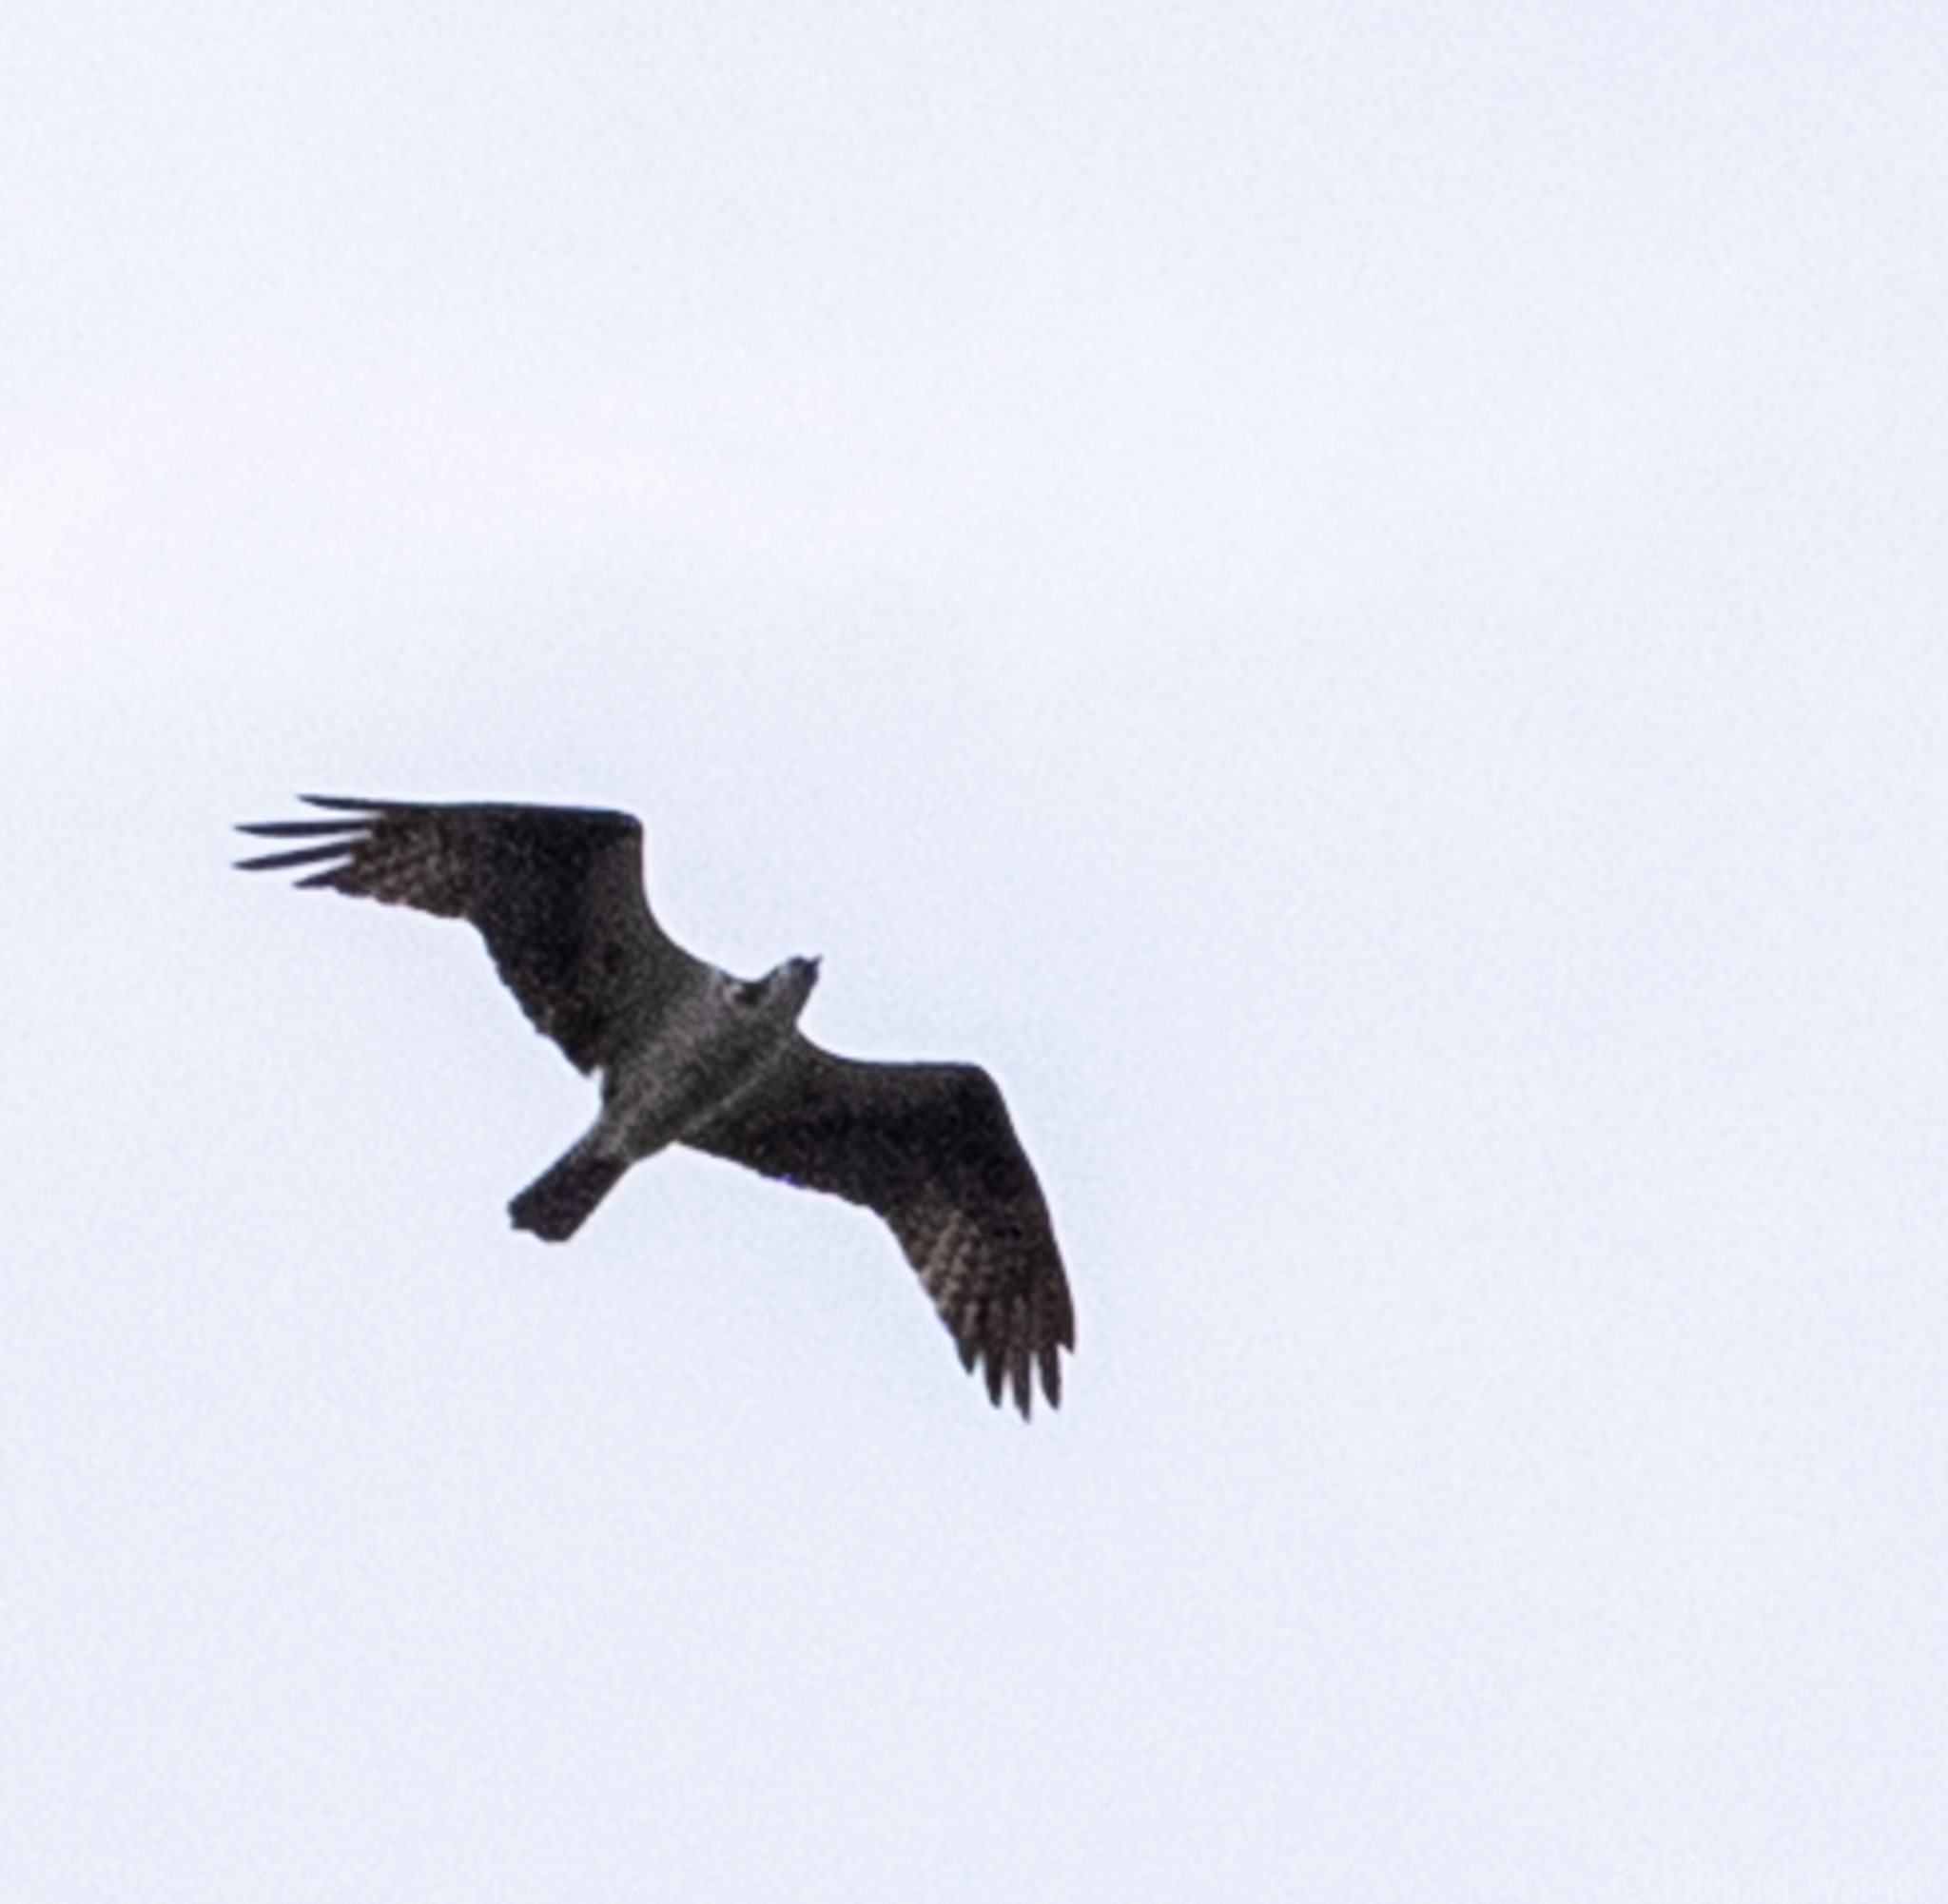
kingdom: Animalia
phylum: Chordata
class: Aves
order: Accipitriformes
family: Pandionidae
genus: Pandion
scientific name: Pandion haliaetus
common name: Osprey
